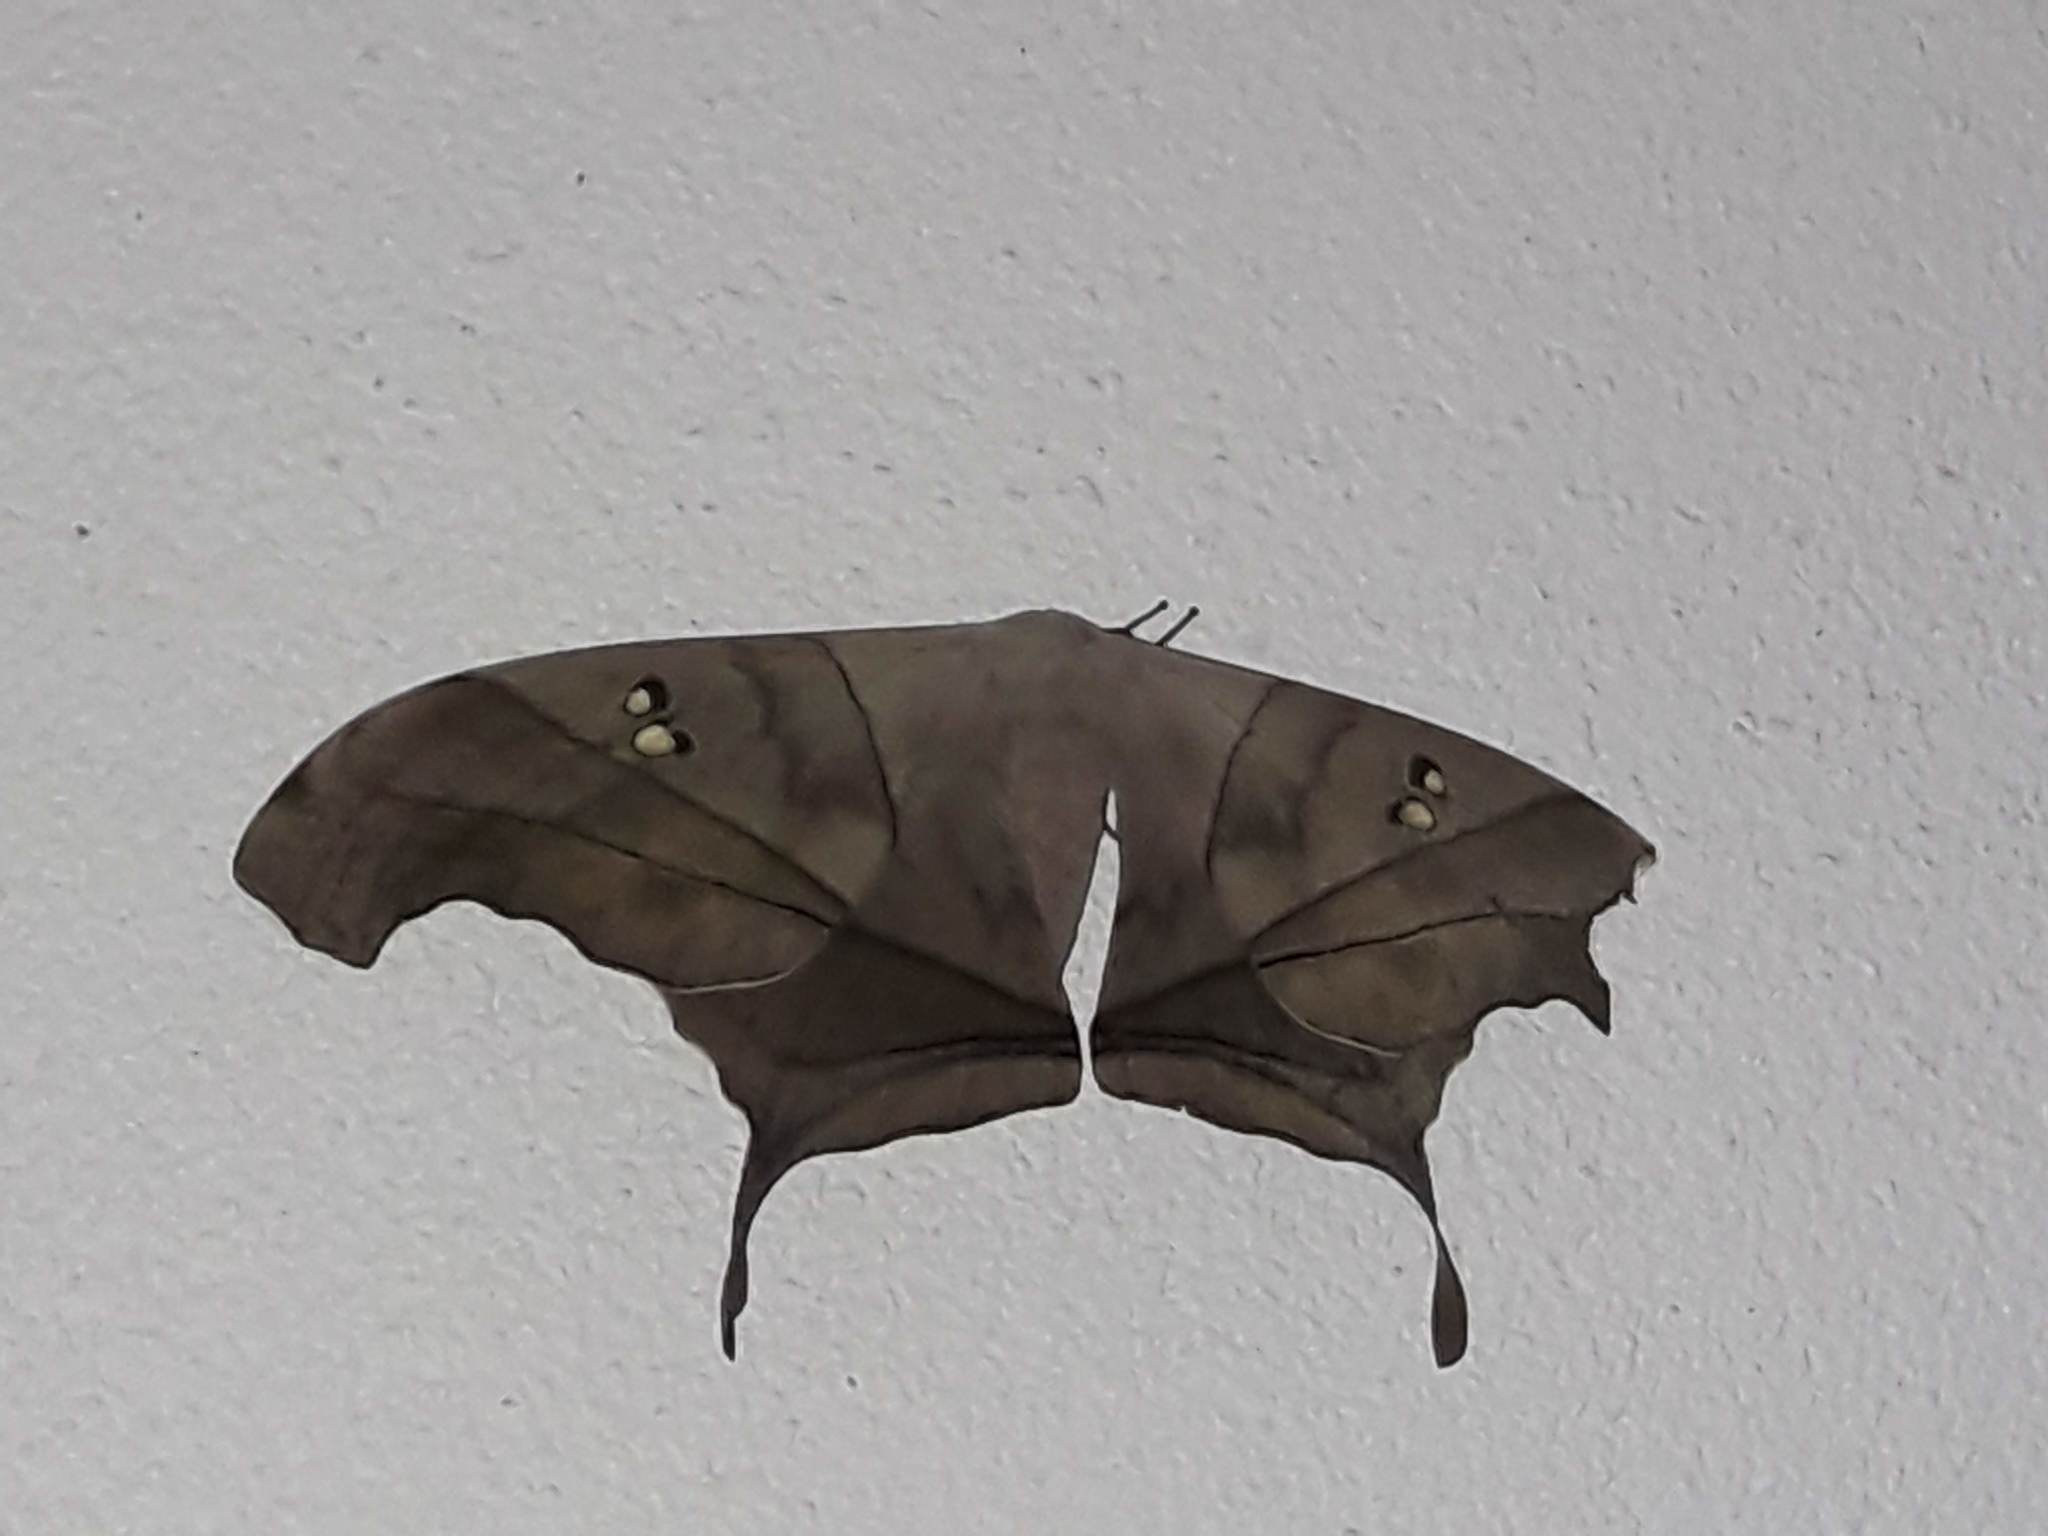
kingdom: Animalia
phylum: Arthropoda
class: Insecta
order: Lepidoptera
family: Saturniidae
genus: Dysdaemonia
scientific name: Dysdaemonia boreas
